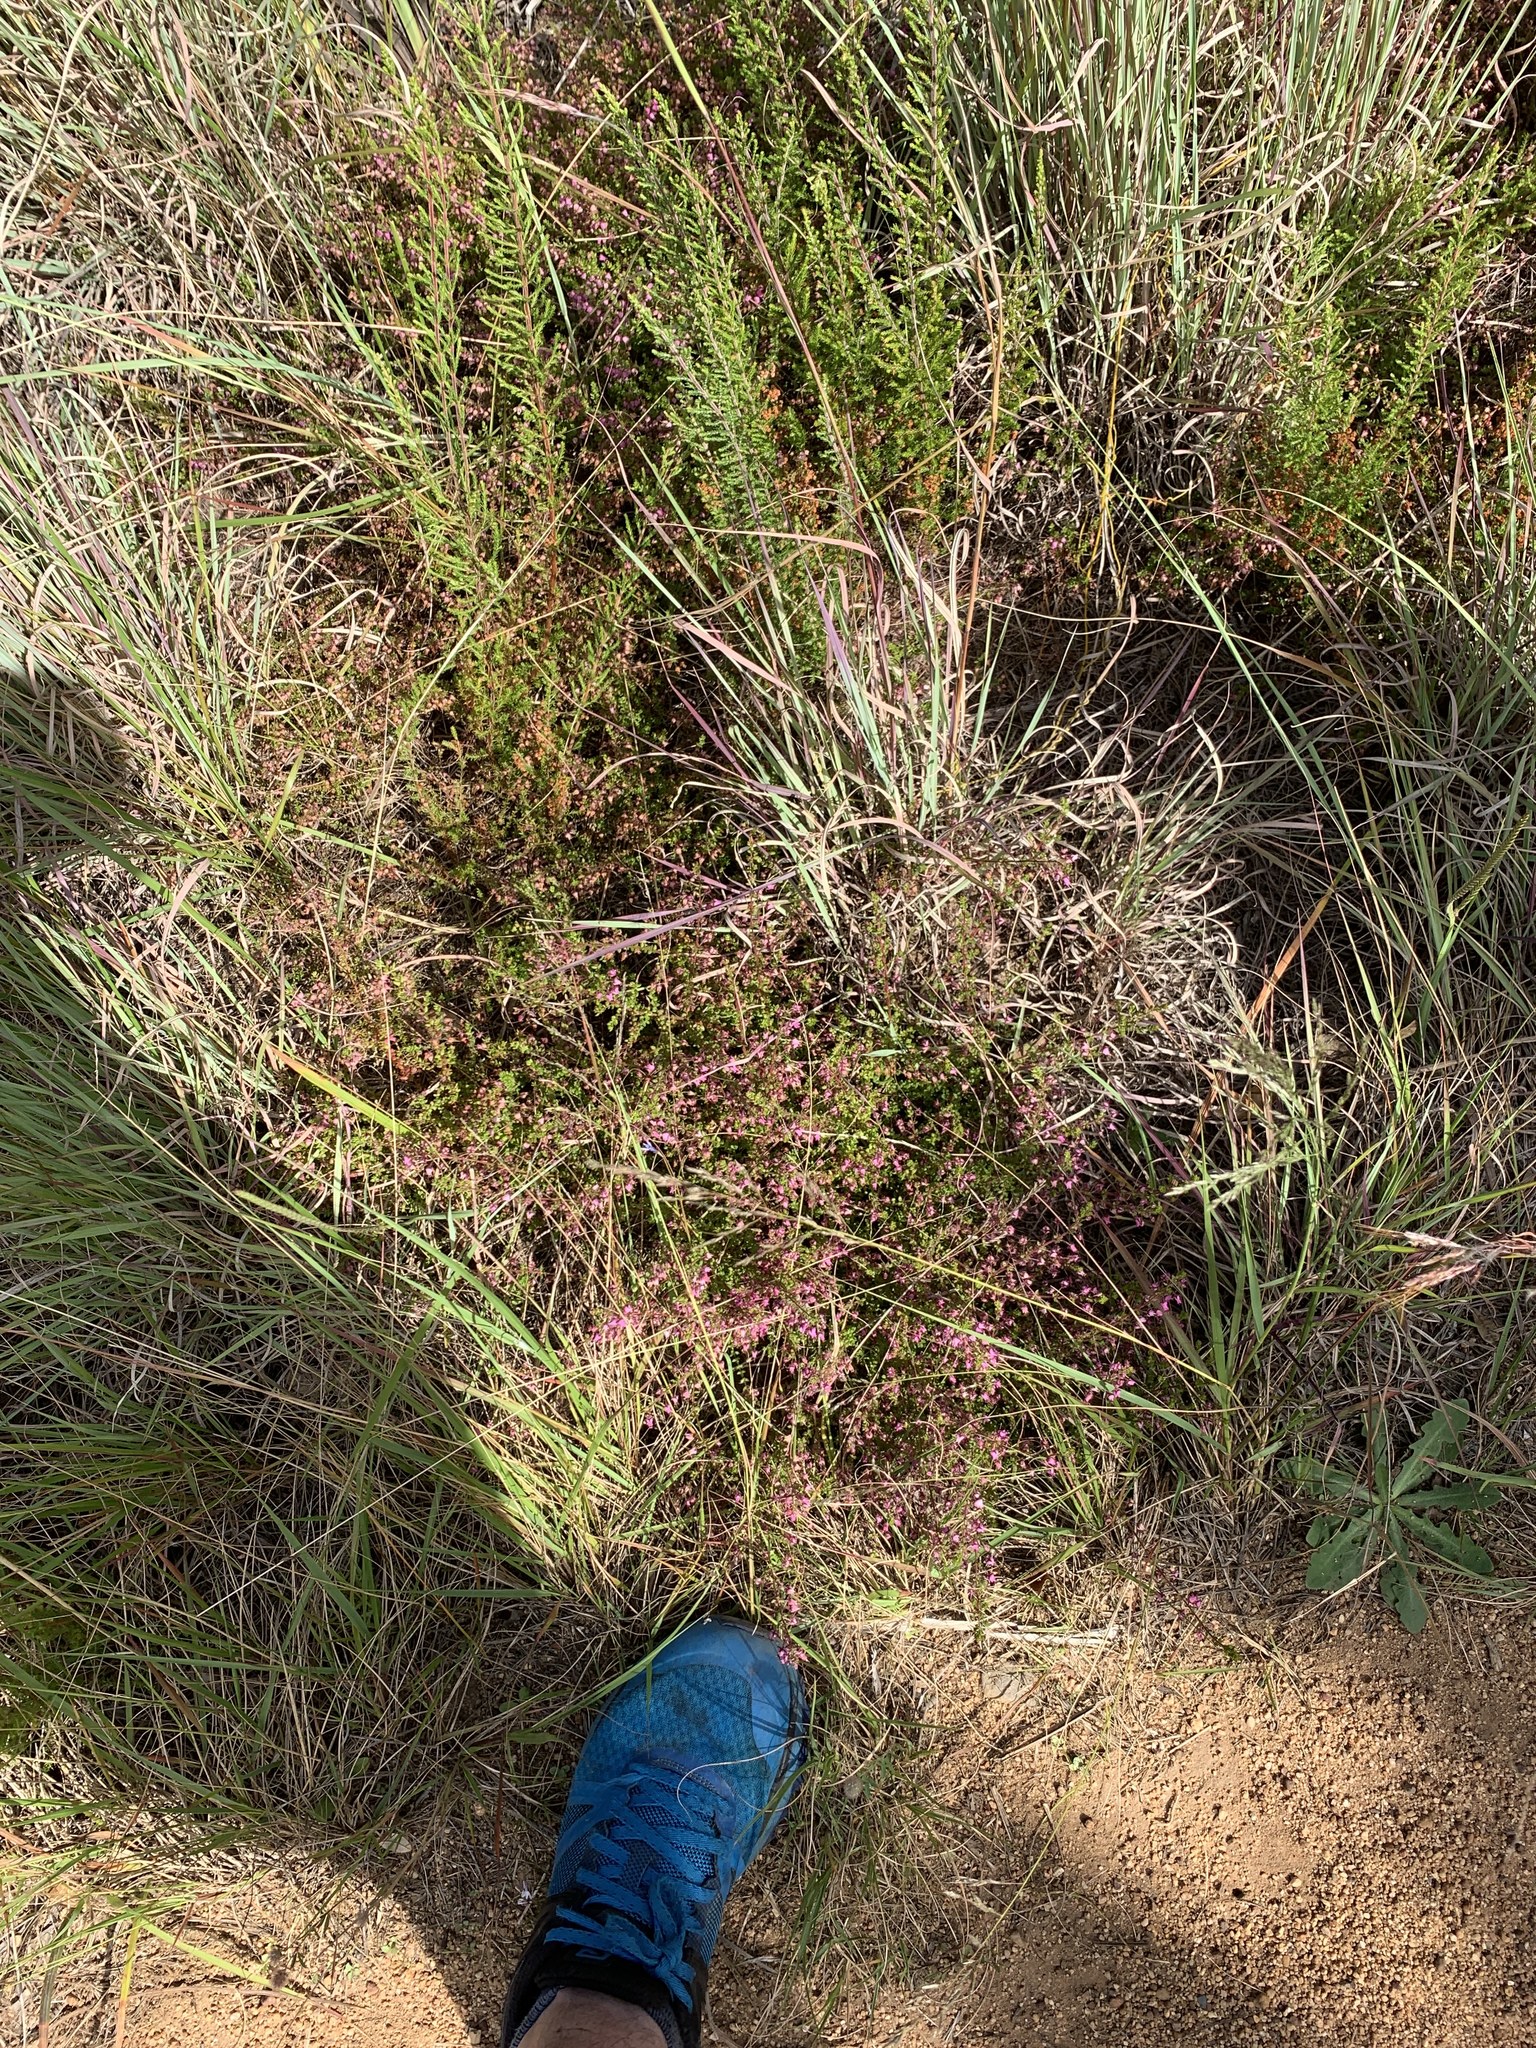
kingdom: Plantae
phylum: Tracheophyta
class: Magnoliopsida
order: Ericales
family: Ericaceae
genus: Erica
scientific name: Erica thimifolia
